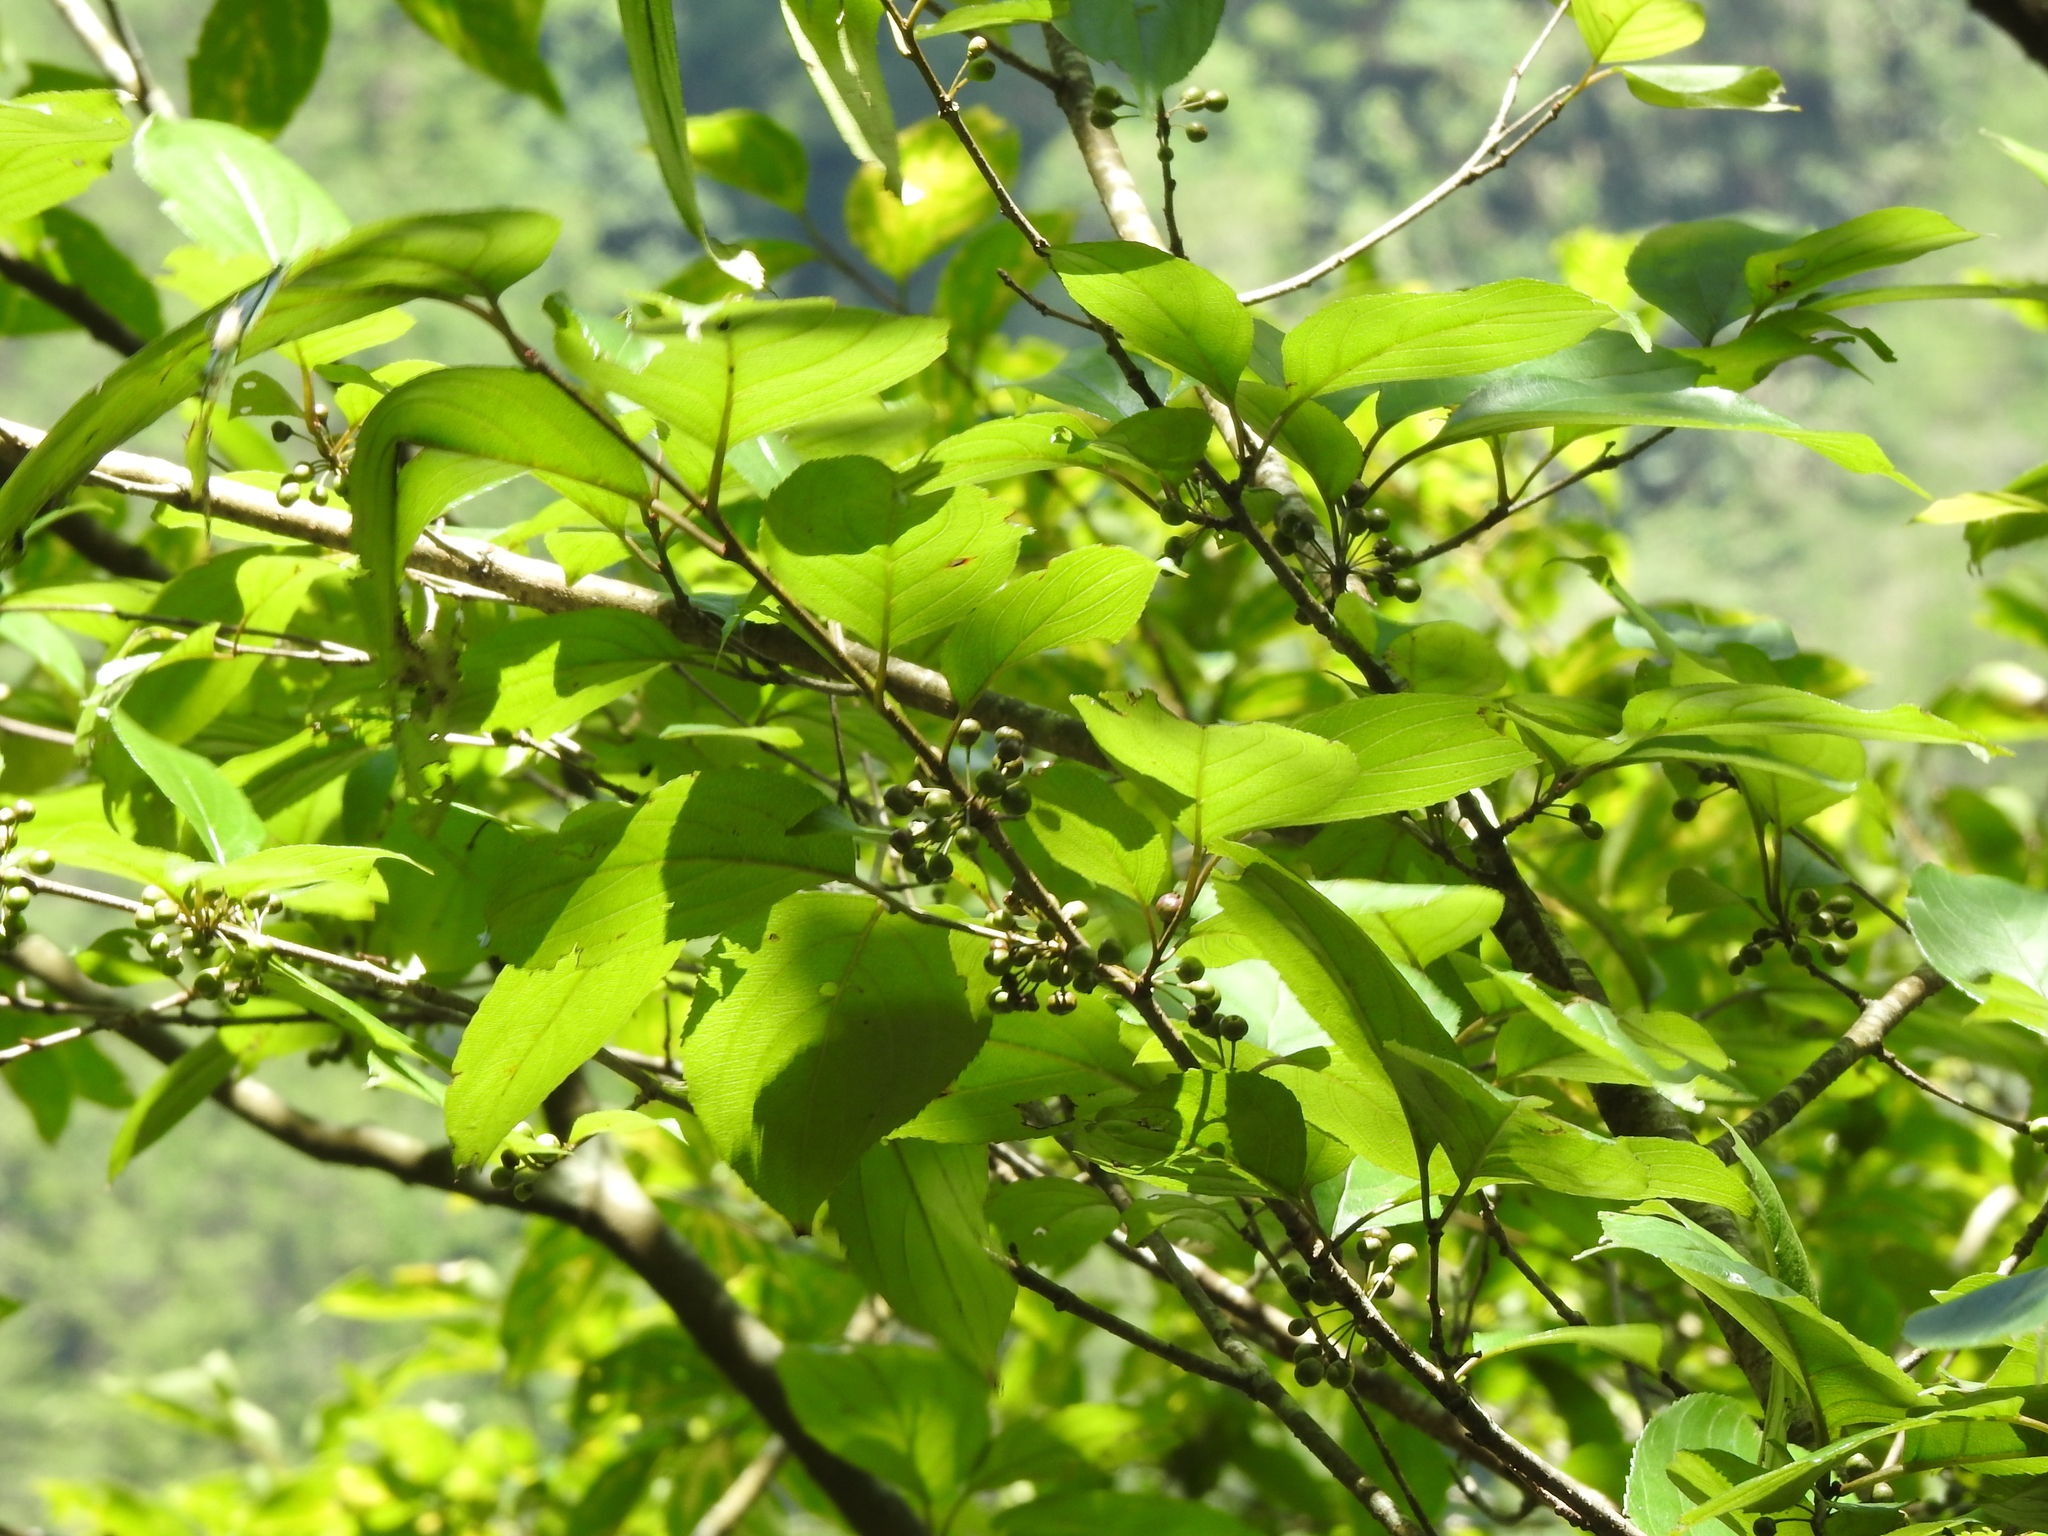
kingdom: Plantae
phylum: Tracheophyta
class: Magnoliopsida
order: Rosales
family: Rhamnaceae
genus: Rhamnus
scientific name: Rhamnus nakaharae
